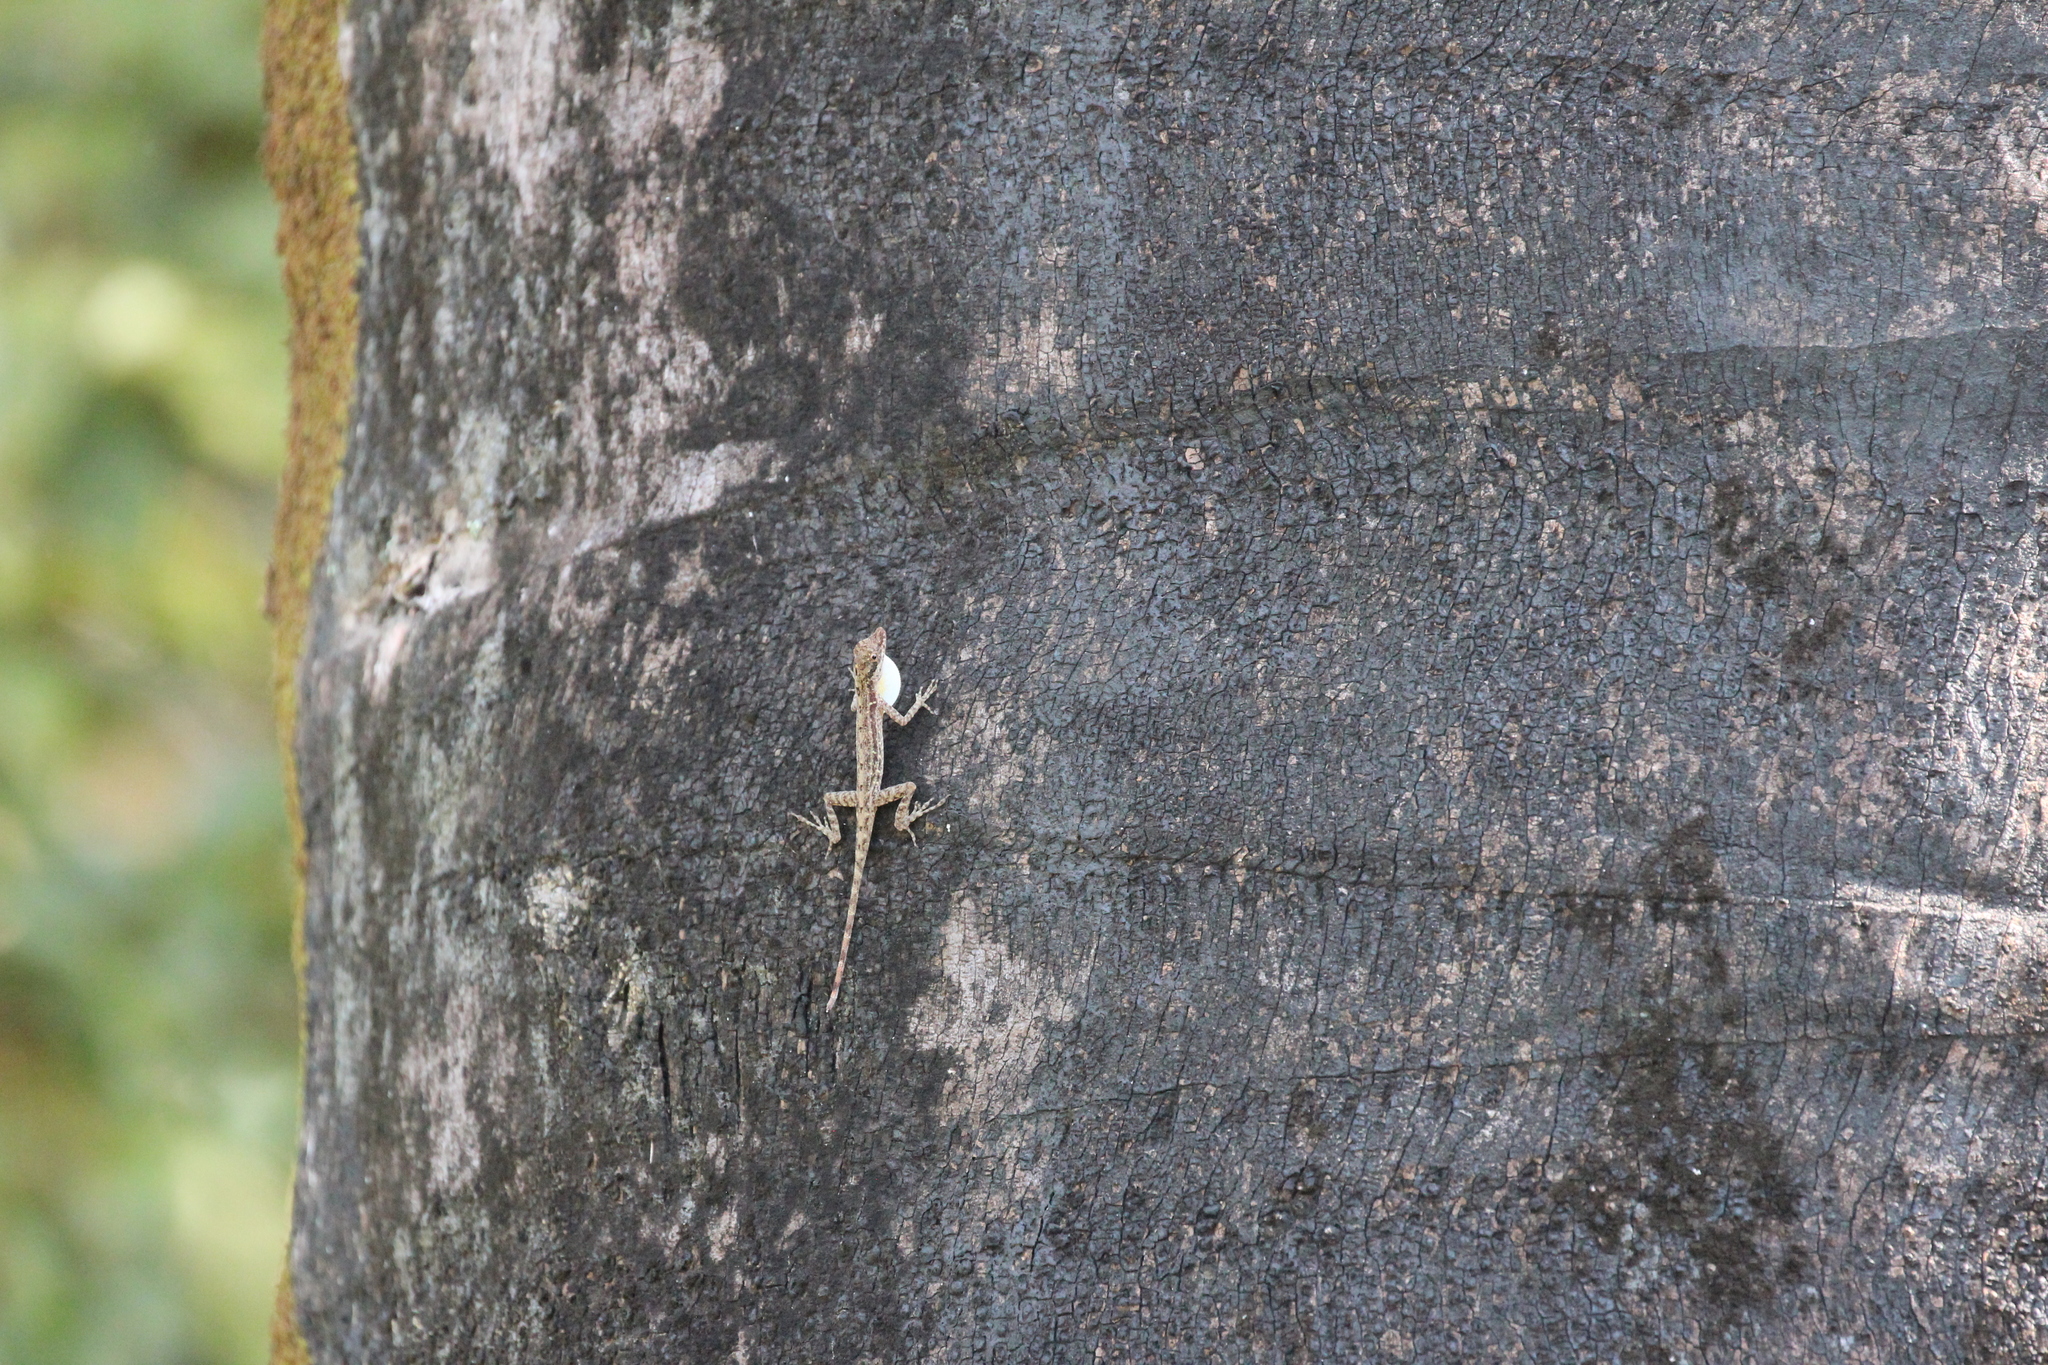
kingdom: Animalia
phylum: Chordata
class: Squamata
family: Dactyloidae
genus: Anolis
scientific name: Anolis limifrons
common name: Border anole
